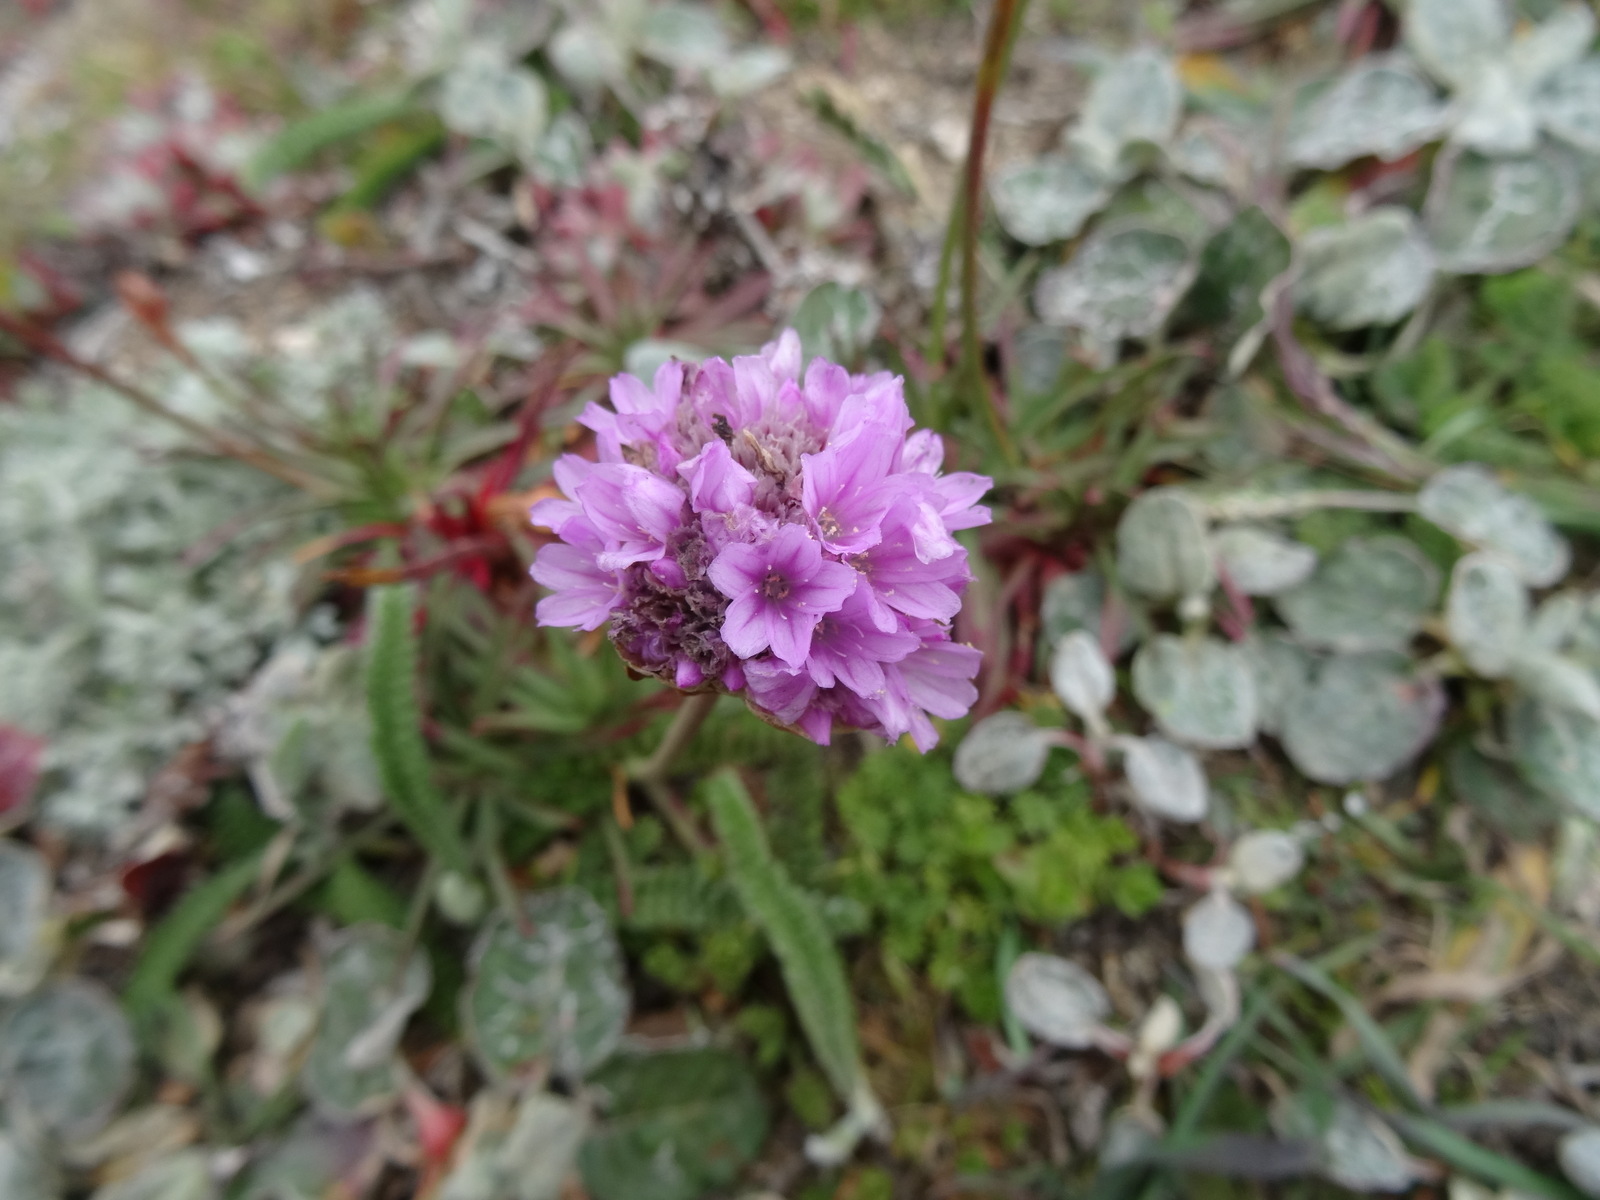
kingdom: Plantae
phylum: Tracheophyta
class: Magnoliopsida
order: Caryophyllales
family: Plumbaginaceae
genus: Armeria
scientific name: Armeria maritima
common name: Thrift
